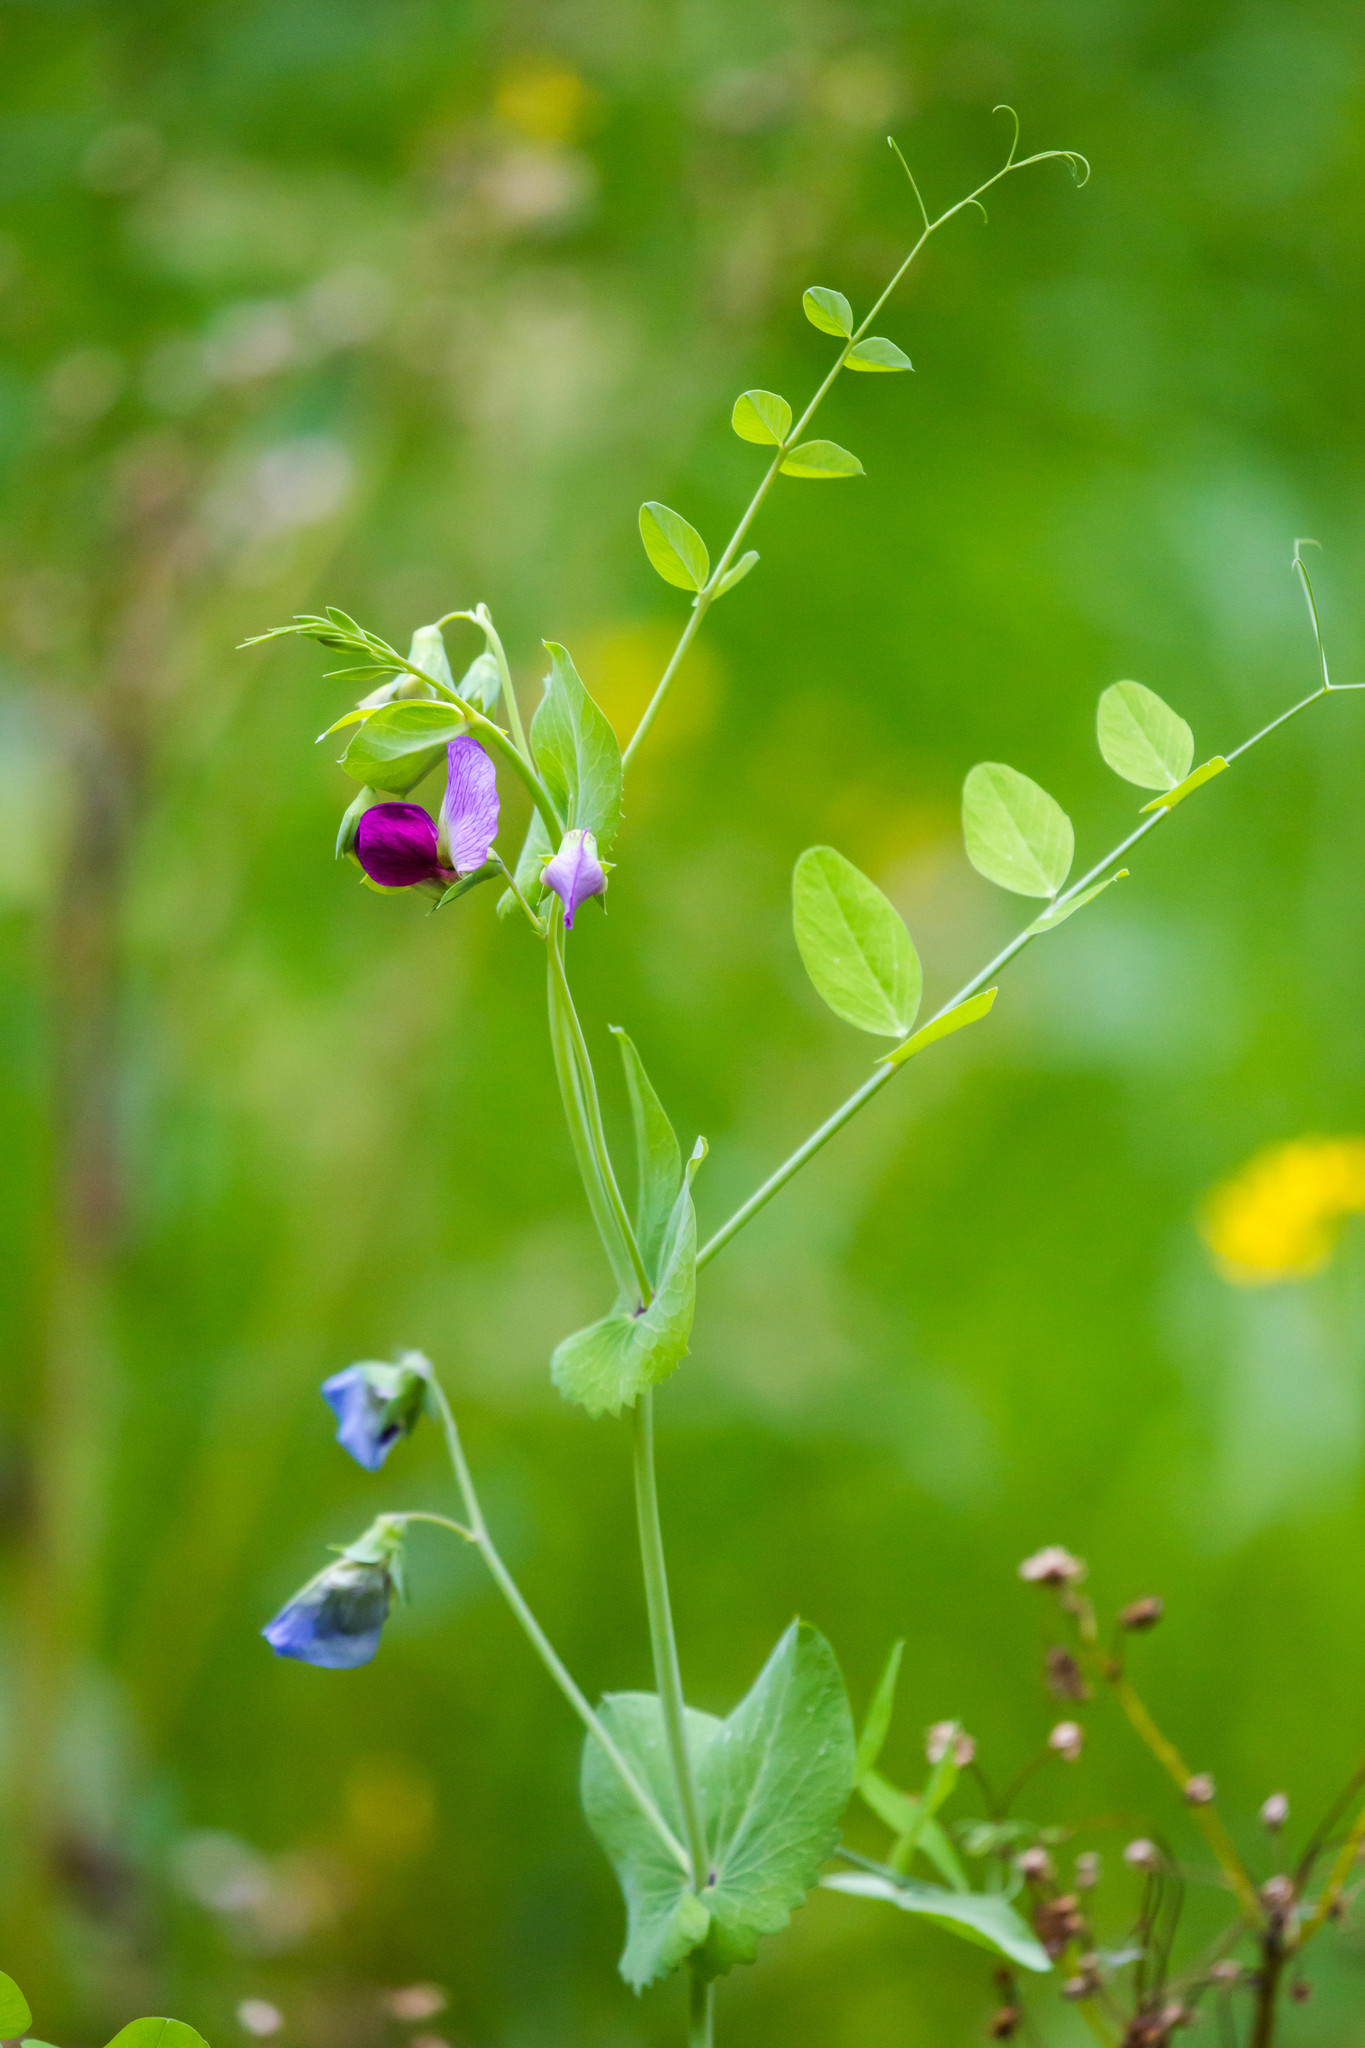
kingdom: Plantae
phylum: Tracheophyta
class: Magnoliopsida
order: Fabales
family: Fabaceae
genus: Lathyrus
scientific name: Lathyrus oleraceus
